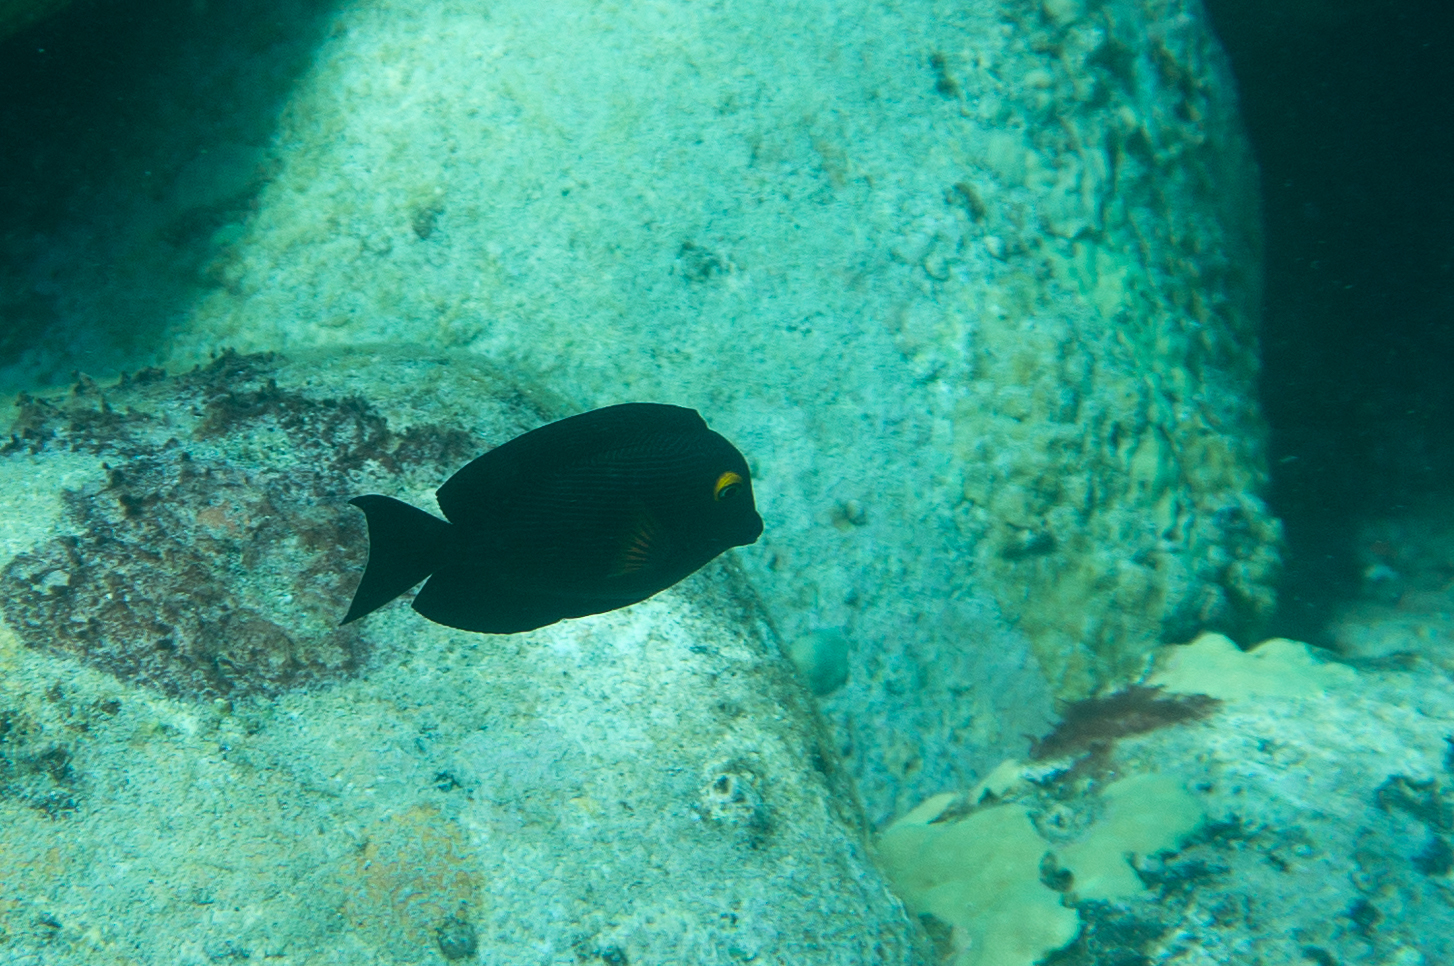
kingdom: Animalia
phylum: Chordata
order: Perciformes
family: Acanthuridae
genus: Ctenochaetus
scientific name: Ctenochaetus strigosus
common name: Bristletoothed surgeonfish
